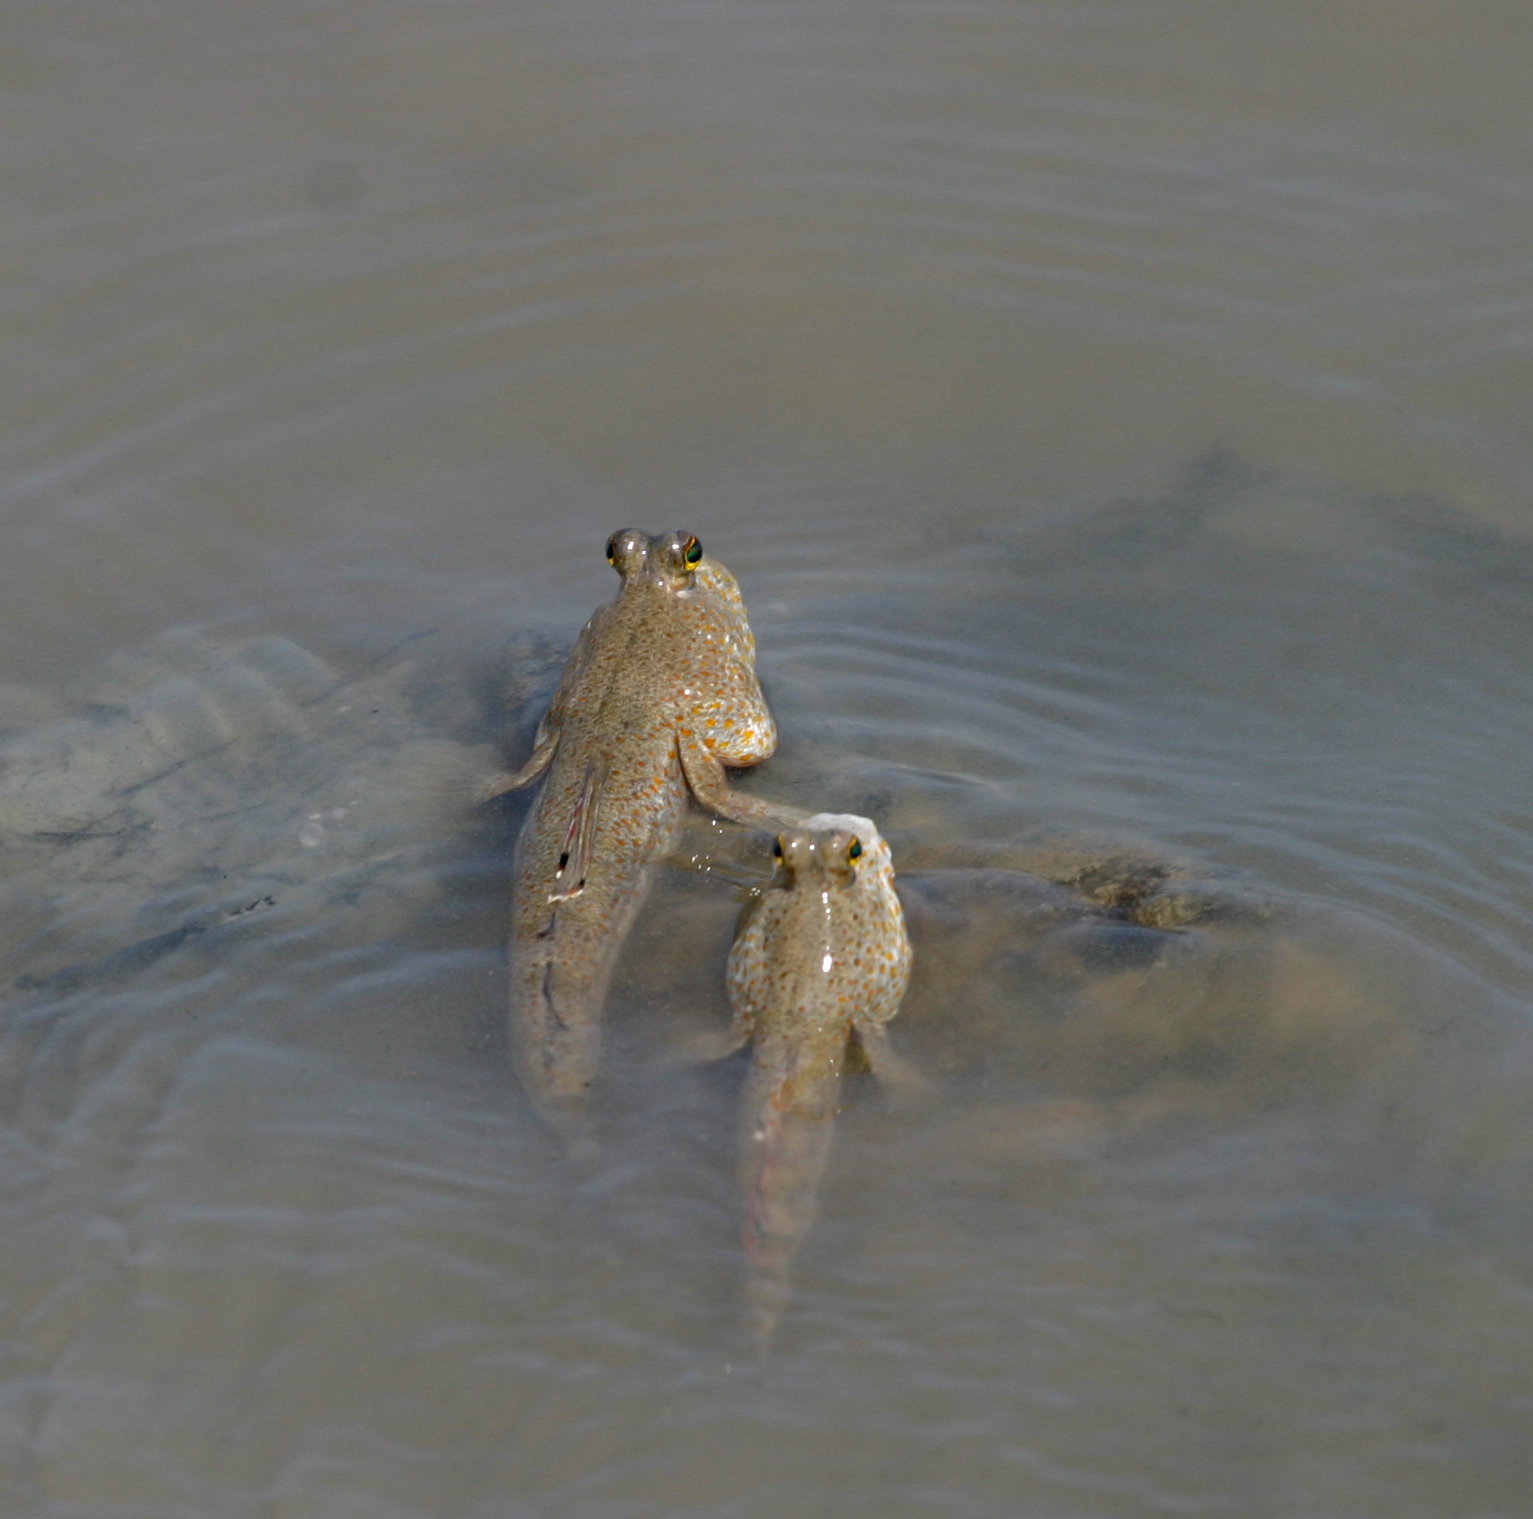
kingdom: Animalia
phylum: Chordata
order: Perciformes
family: Gobiidae
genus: Periophthalmus
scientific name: Periophthalmus chrysospilos
